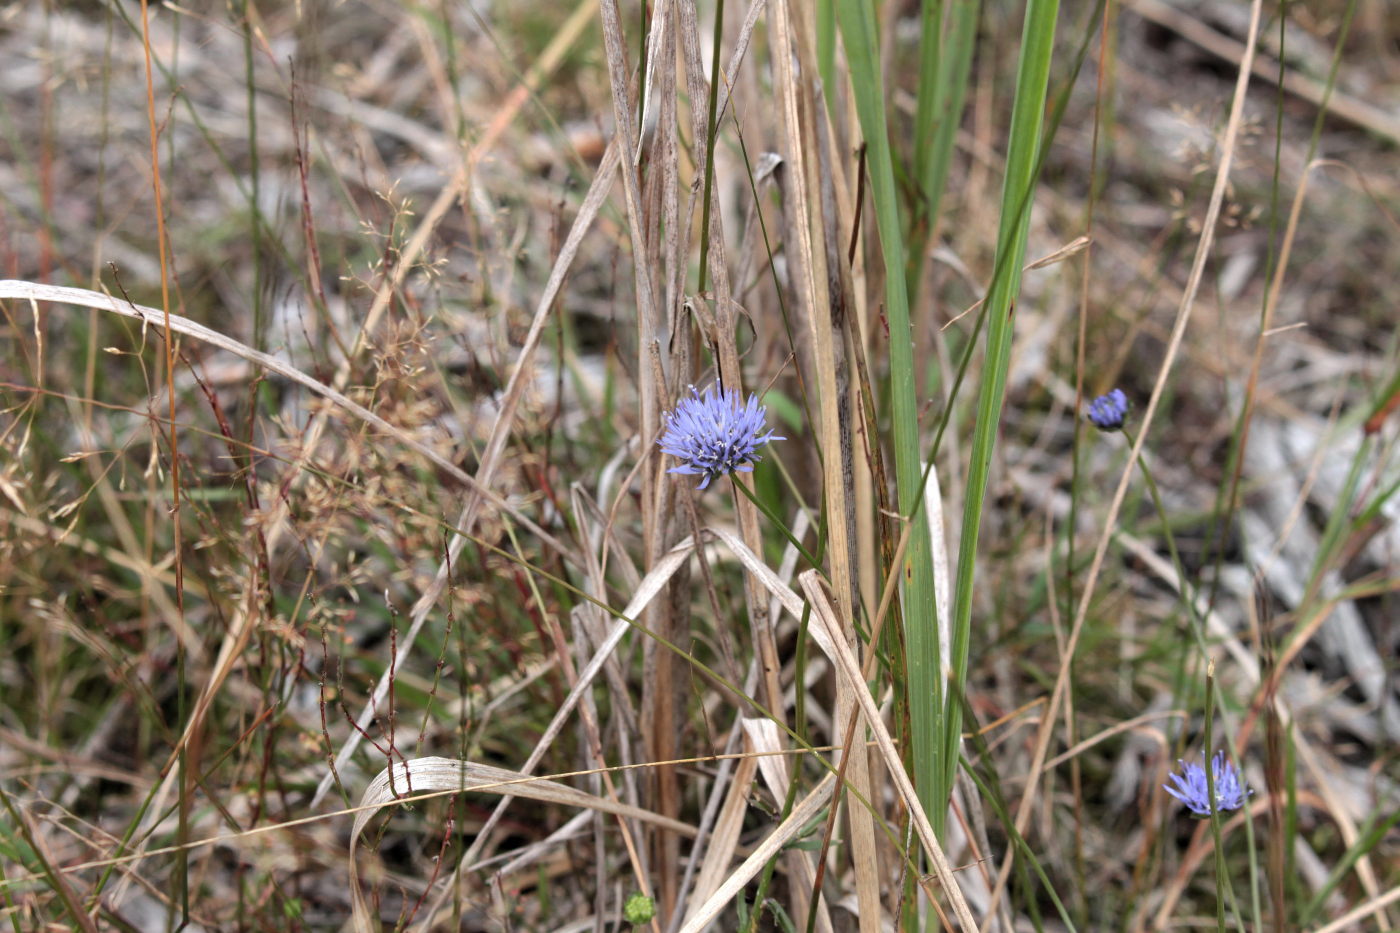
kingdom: Plantae
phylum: Tracheophyta
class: Magnoliopsida
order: Asterales
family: Campanulaceae
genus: Jasione
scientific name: Jasione montana
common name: Sheep's-bit
